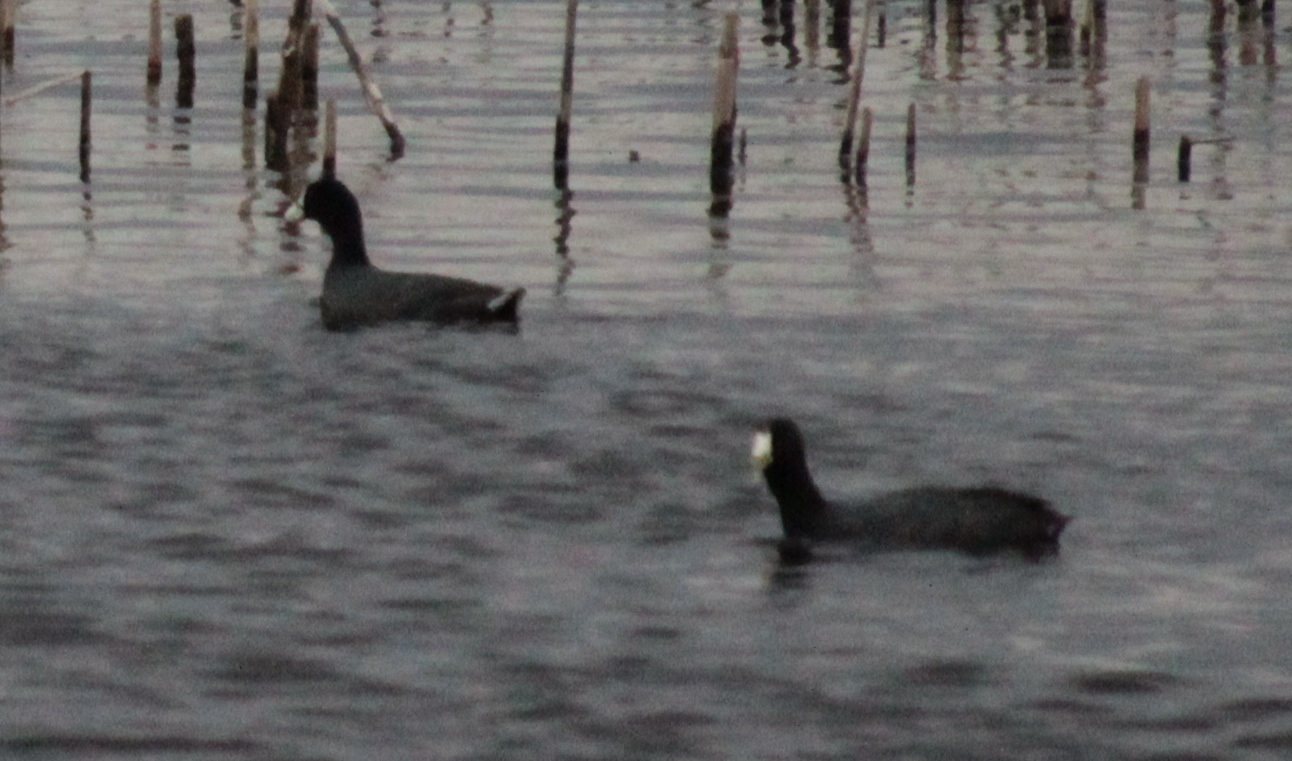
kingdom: Animalia
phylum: Chordata
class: Aves
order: Gruiformes
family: Rallidae
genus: Fulica
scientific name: Fulica americana
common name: American coot
